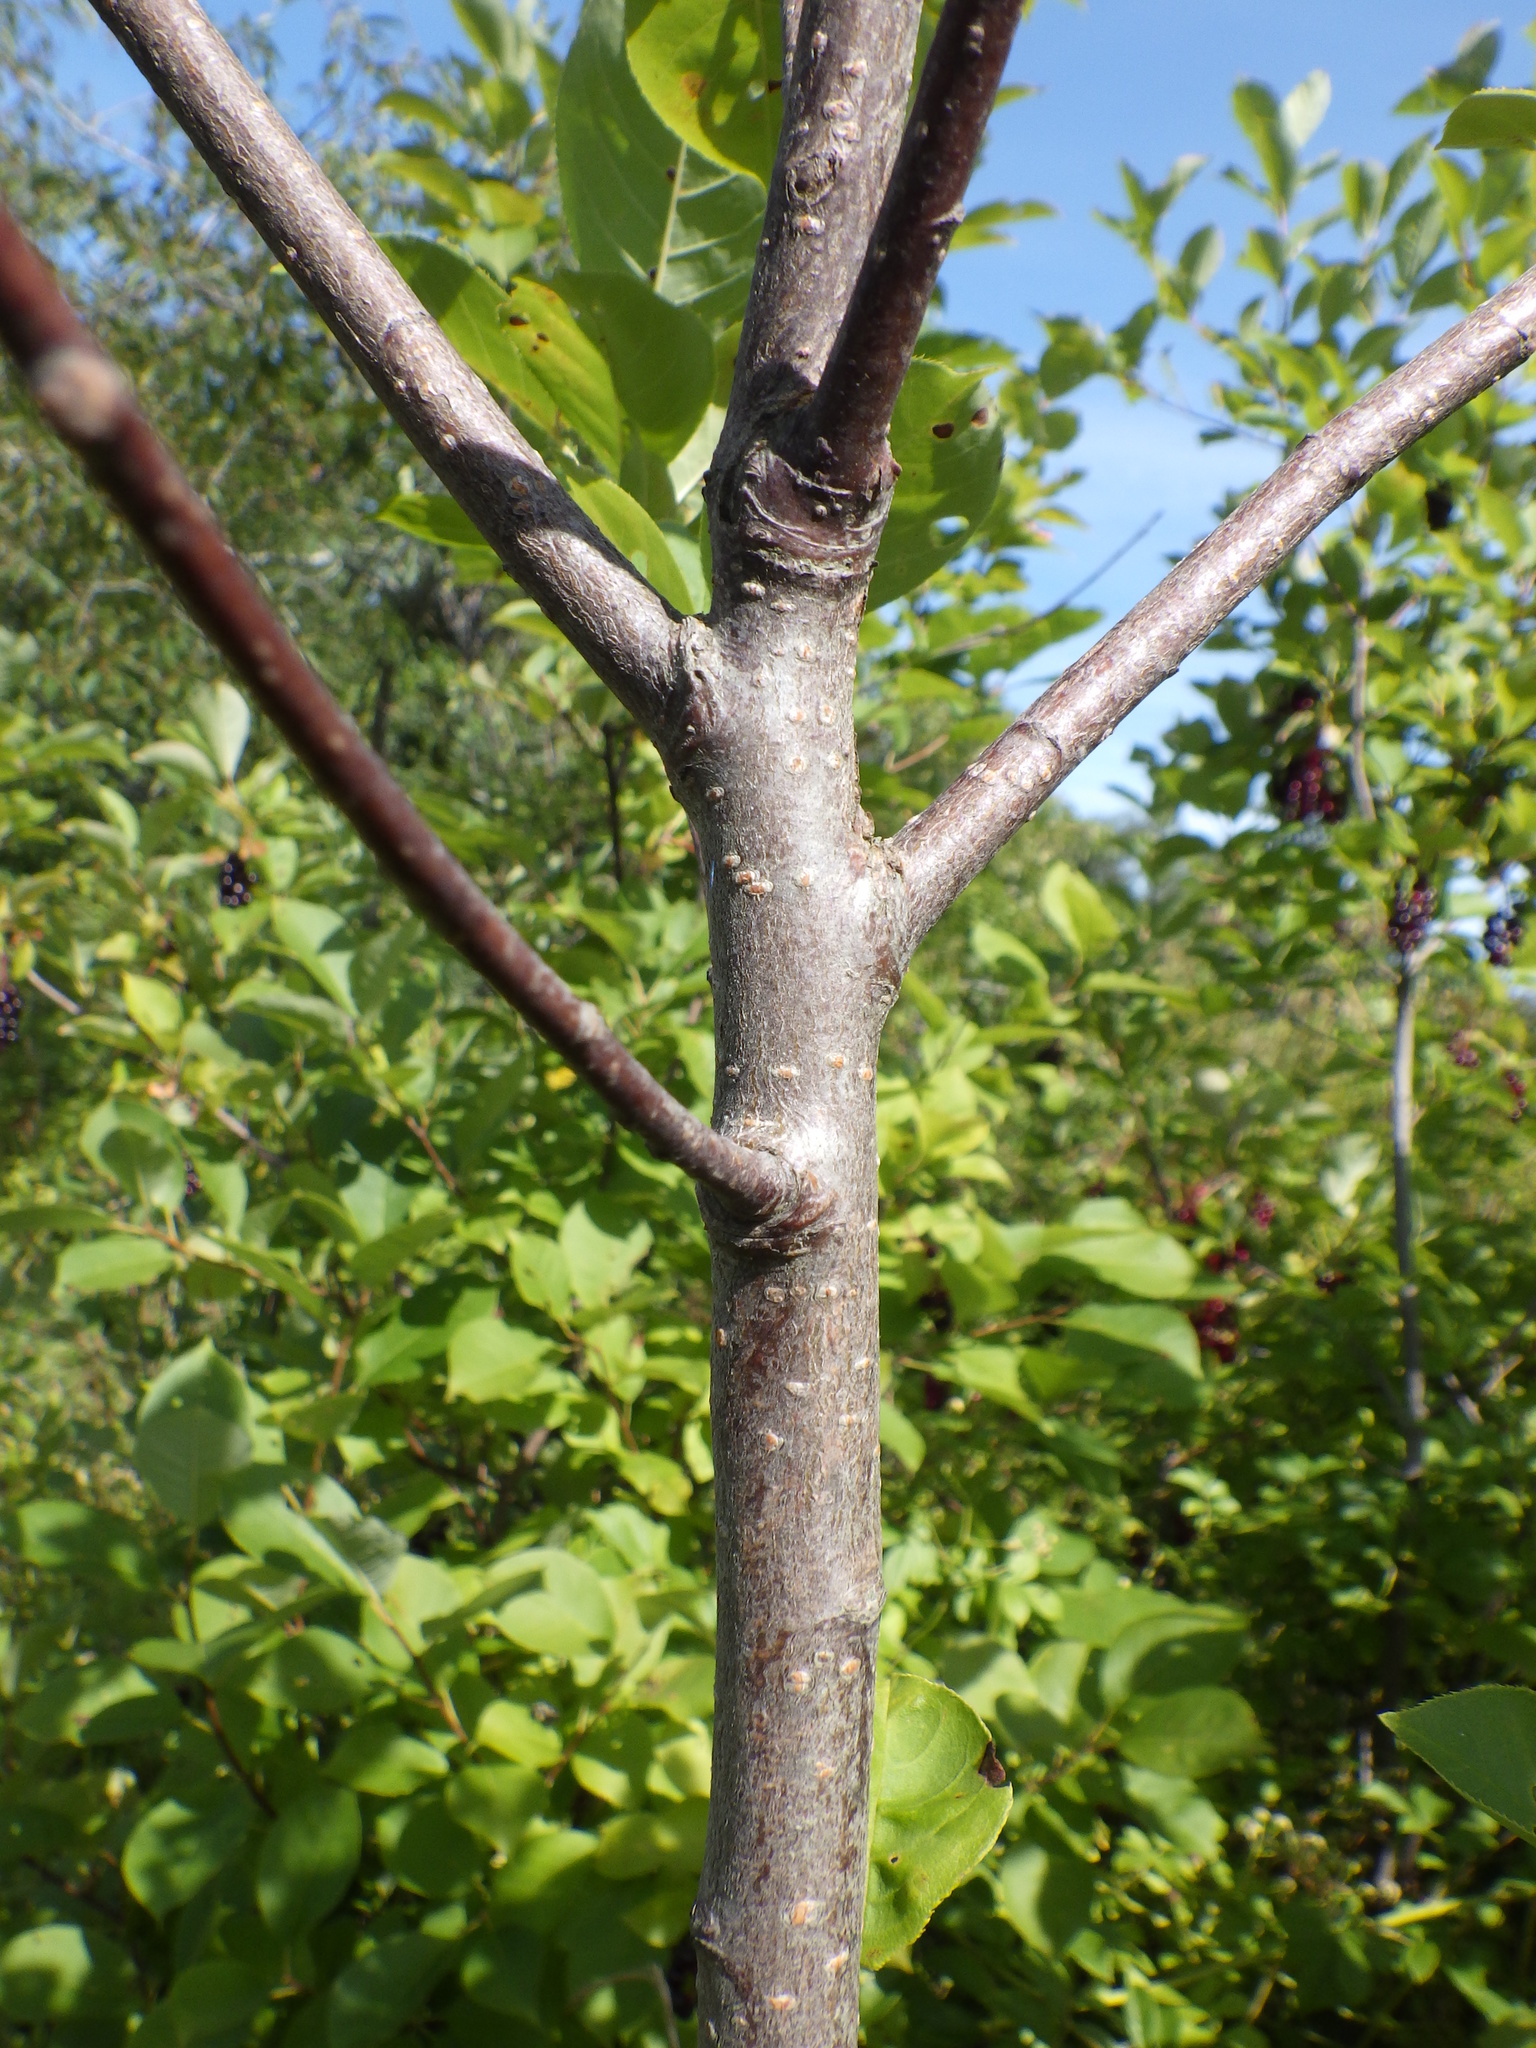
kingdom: Plantae
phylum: Tracheophyta
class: Magnoliopsida
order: Rosales
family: Rosaceae
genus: Prunus
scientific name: Prunus virginiana
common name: Chokecherry
